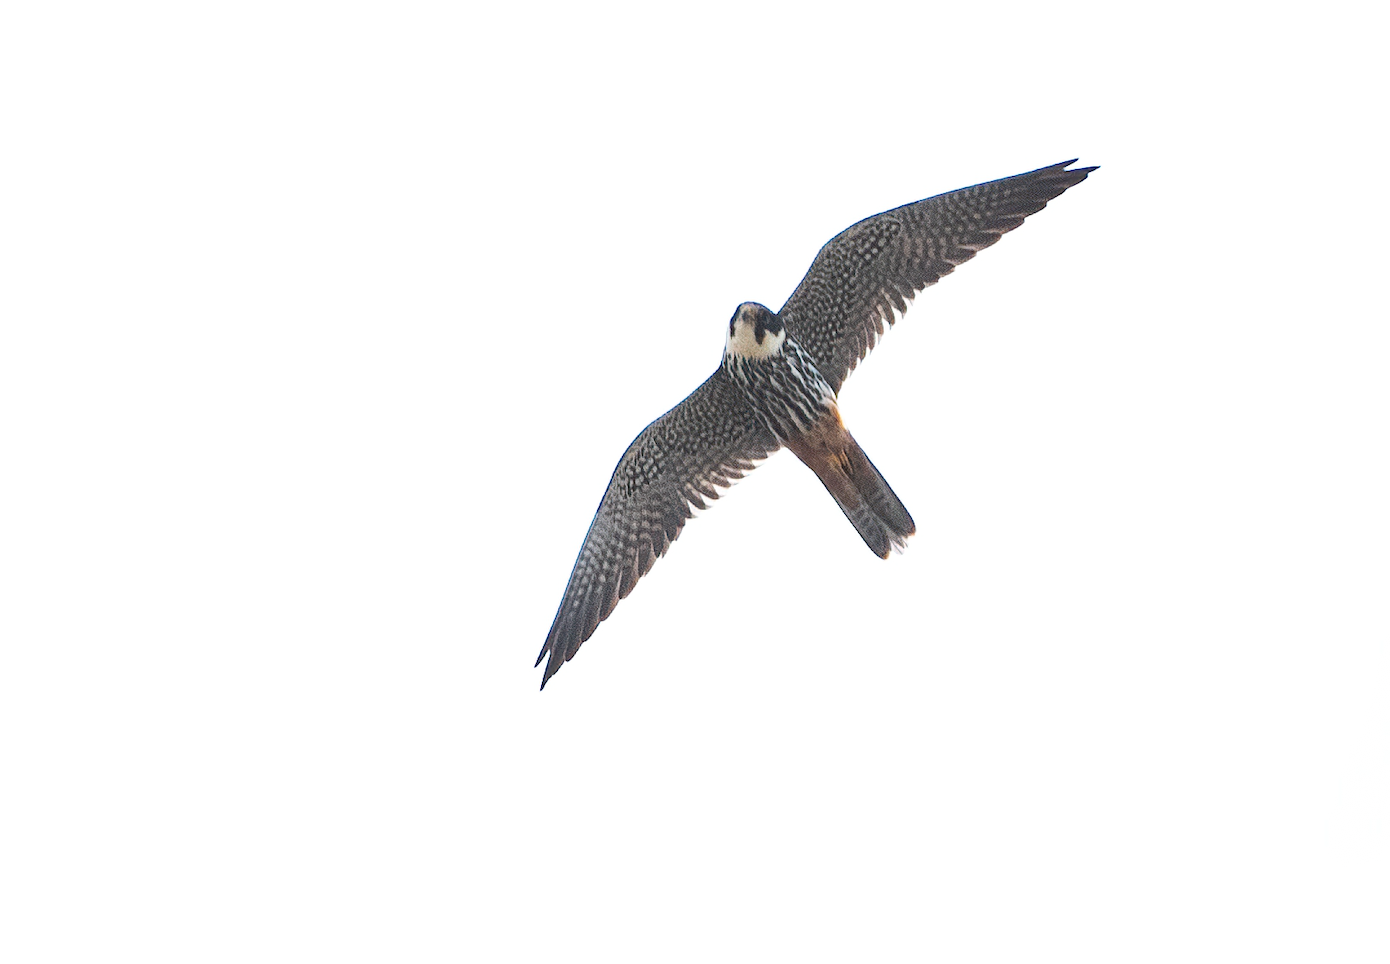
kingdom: Animalia
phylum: Chordata
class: Aves
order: Falconiformes
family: Falconidae
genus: Falco
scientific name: Falco subbuteo
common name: Eurasian hobby
